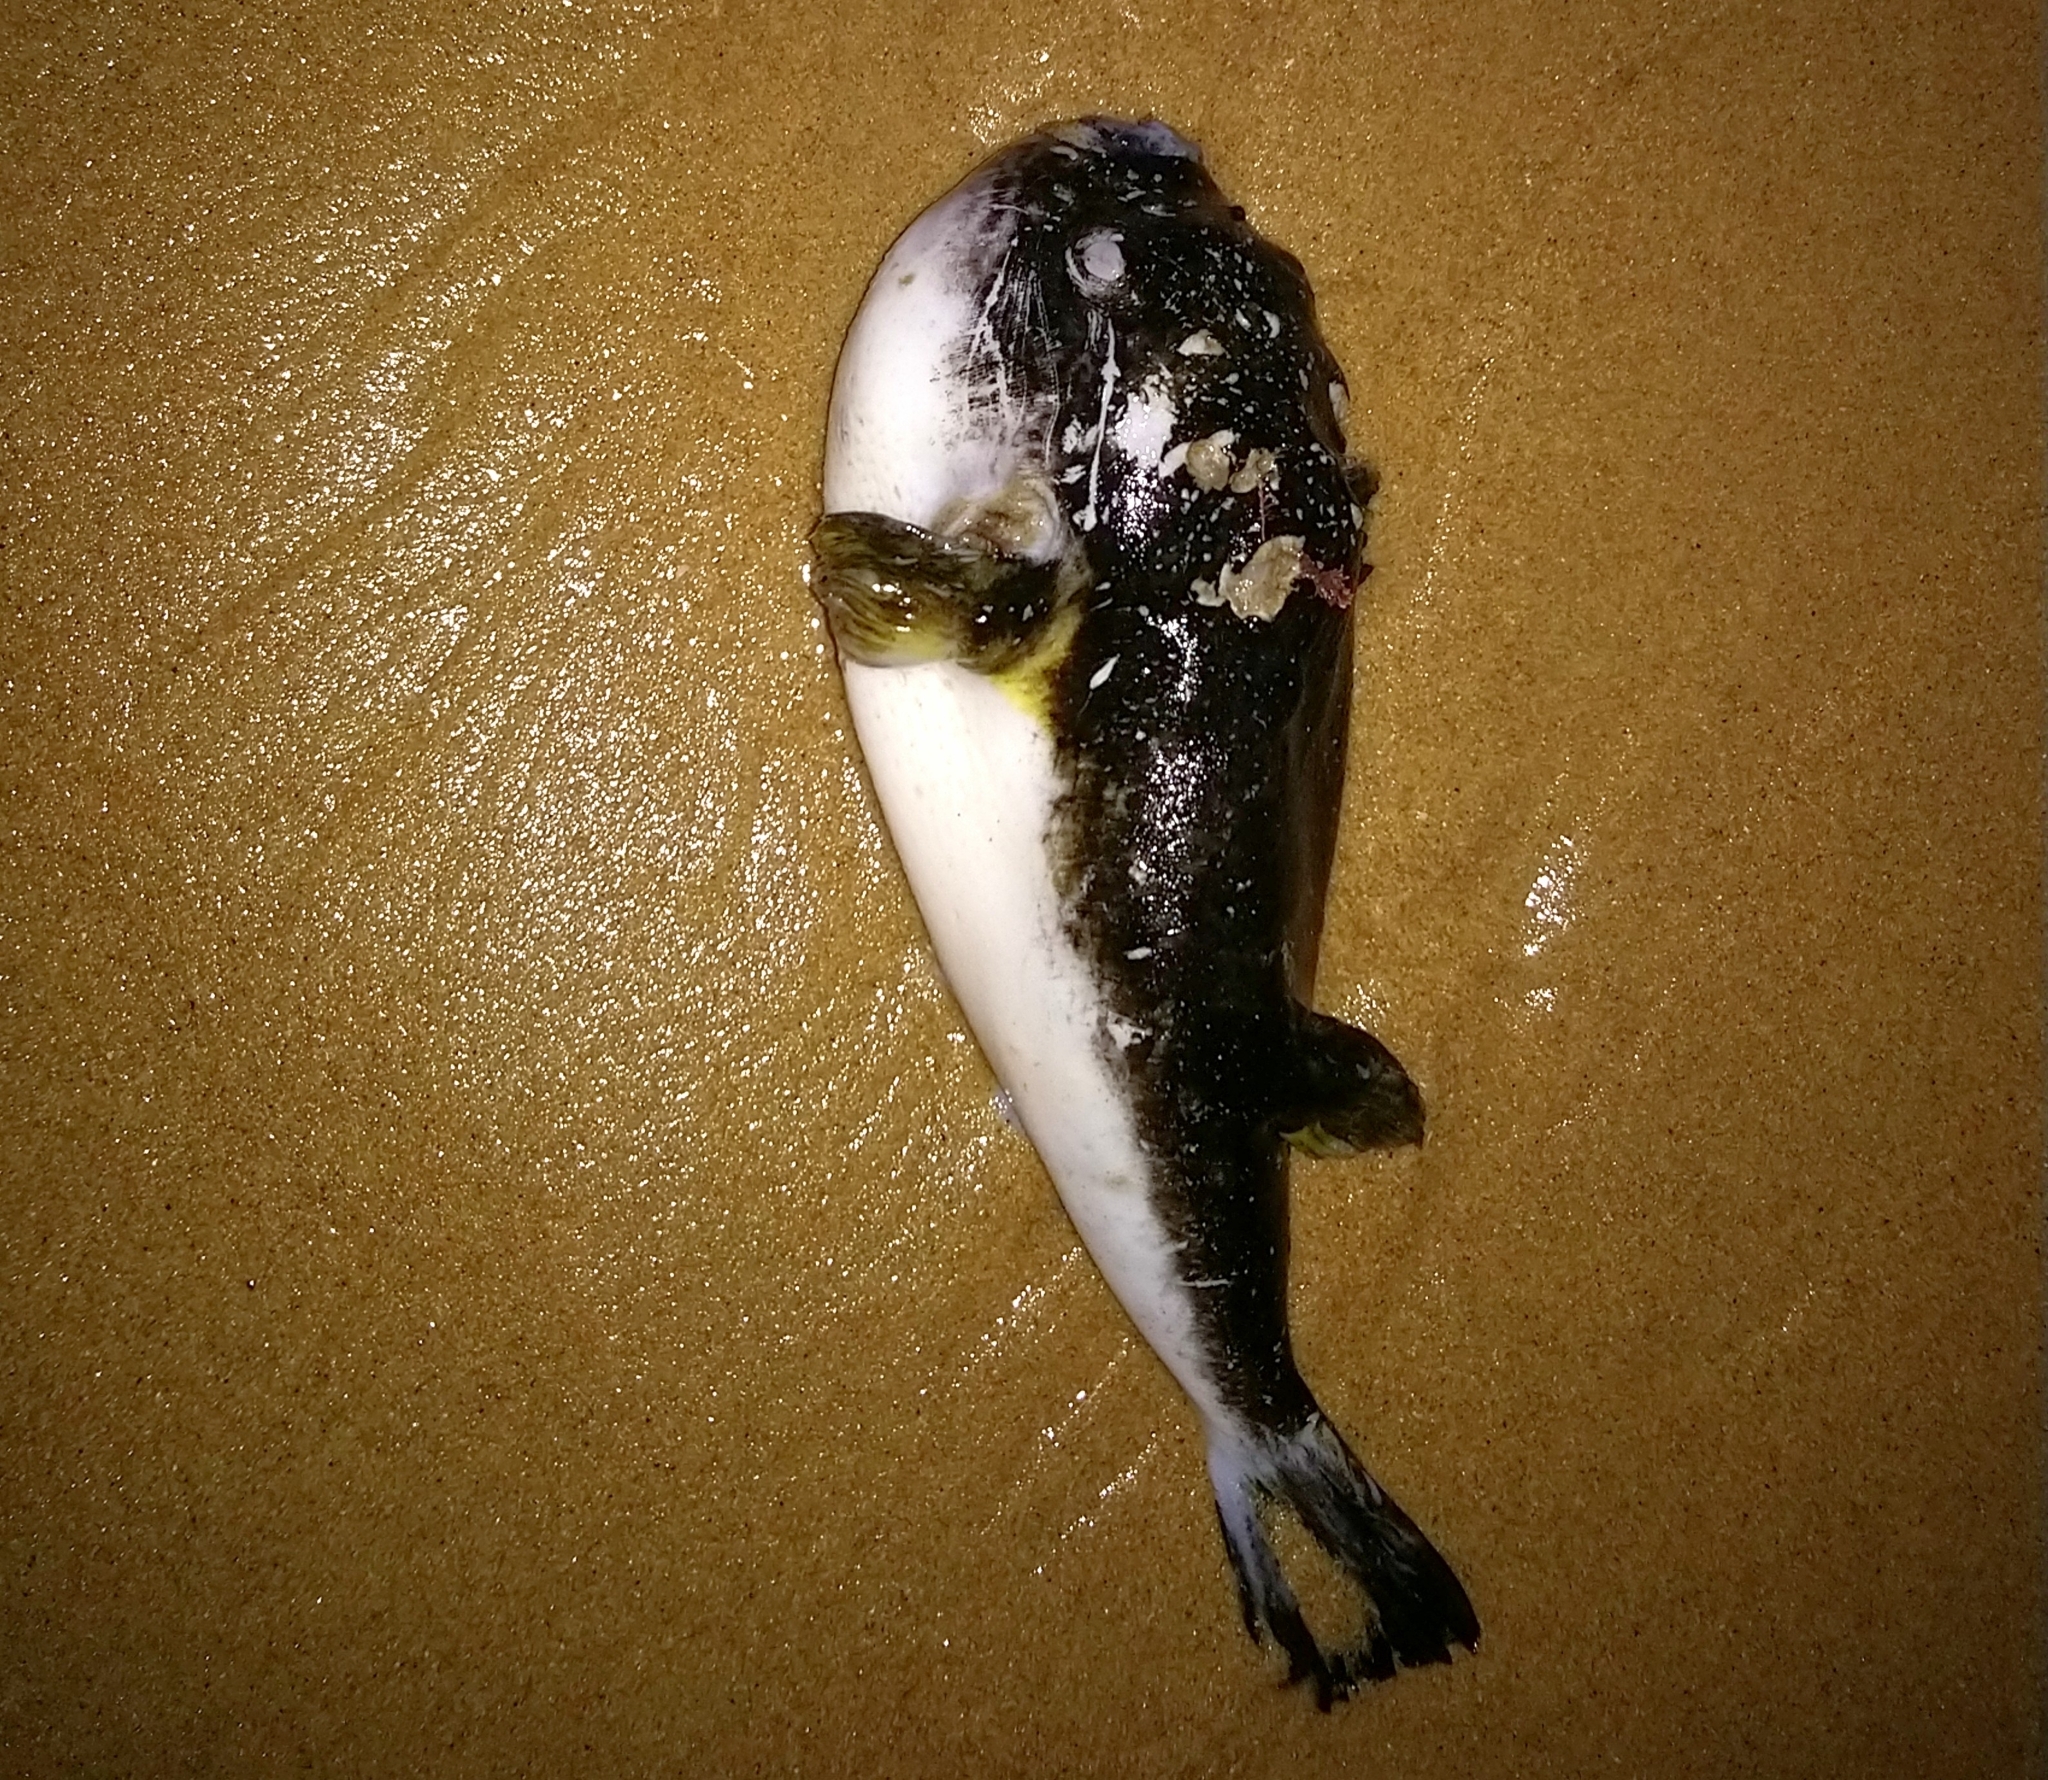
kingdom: Animalia
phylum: Chordata
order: Tetraodontiformes
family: Tetraodontidae
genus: Amblyrhynchote
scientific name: Amblyrhynchote honckenii
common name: Evileye blaasop
